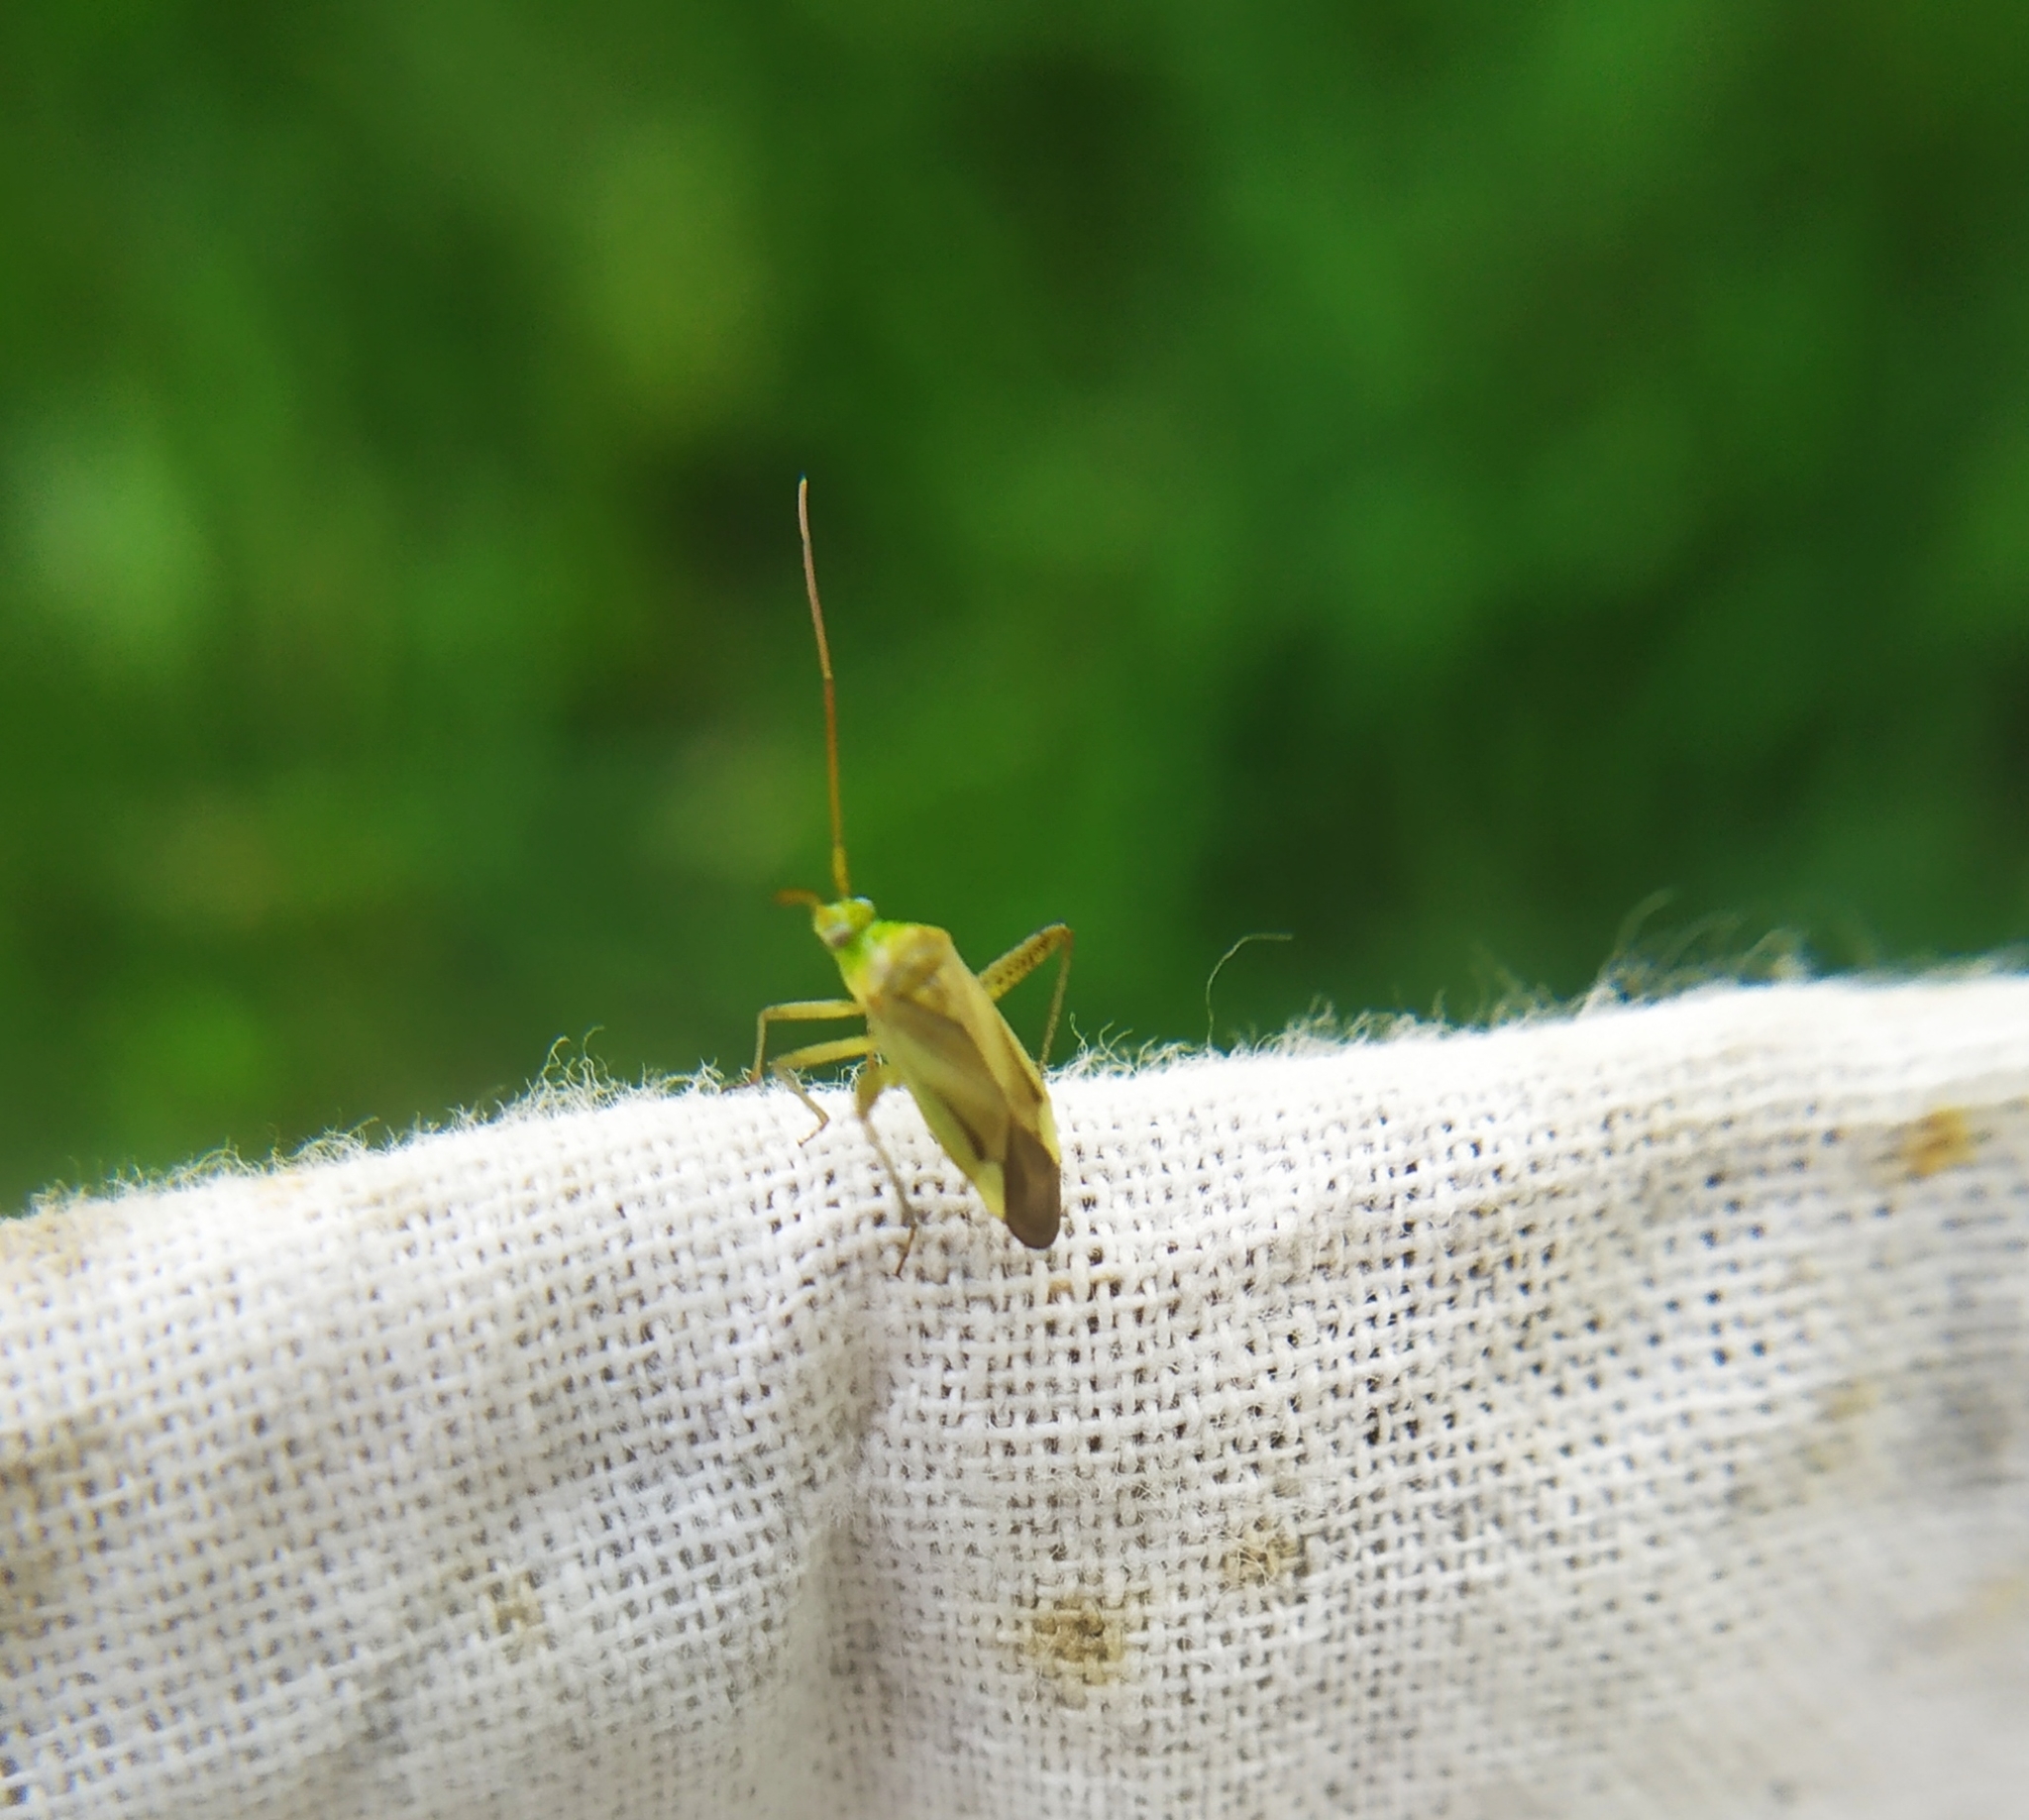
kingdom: Animalia
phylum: Arthropoda
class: Insecta
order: Hemiptera
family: Miridae
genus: Adelphocoris
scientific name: Adelphocoris lineolatus
